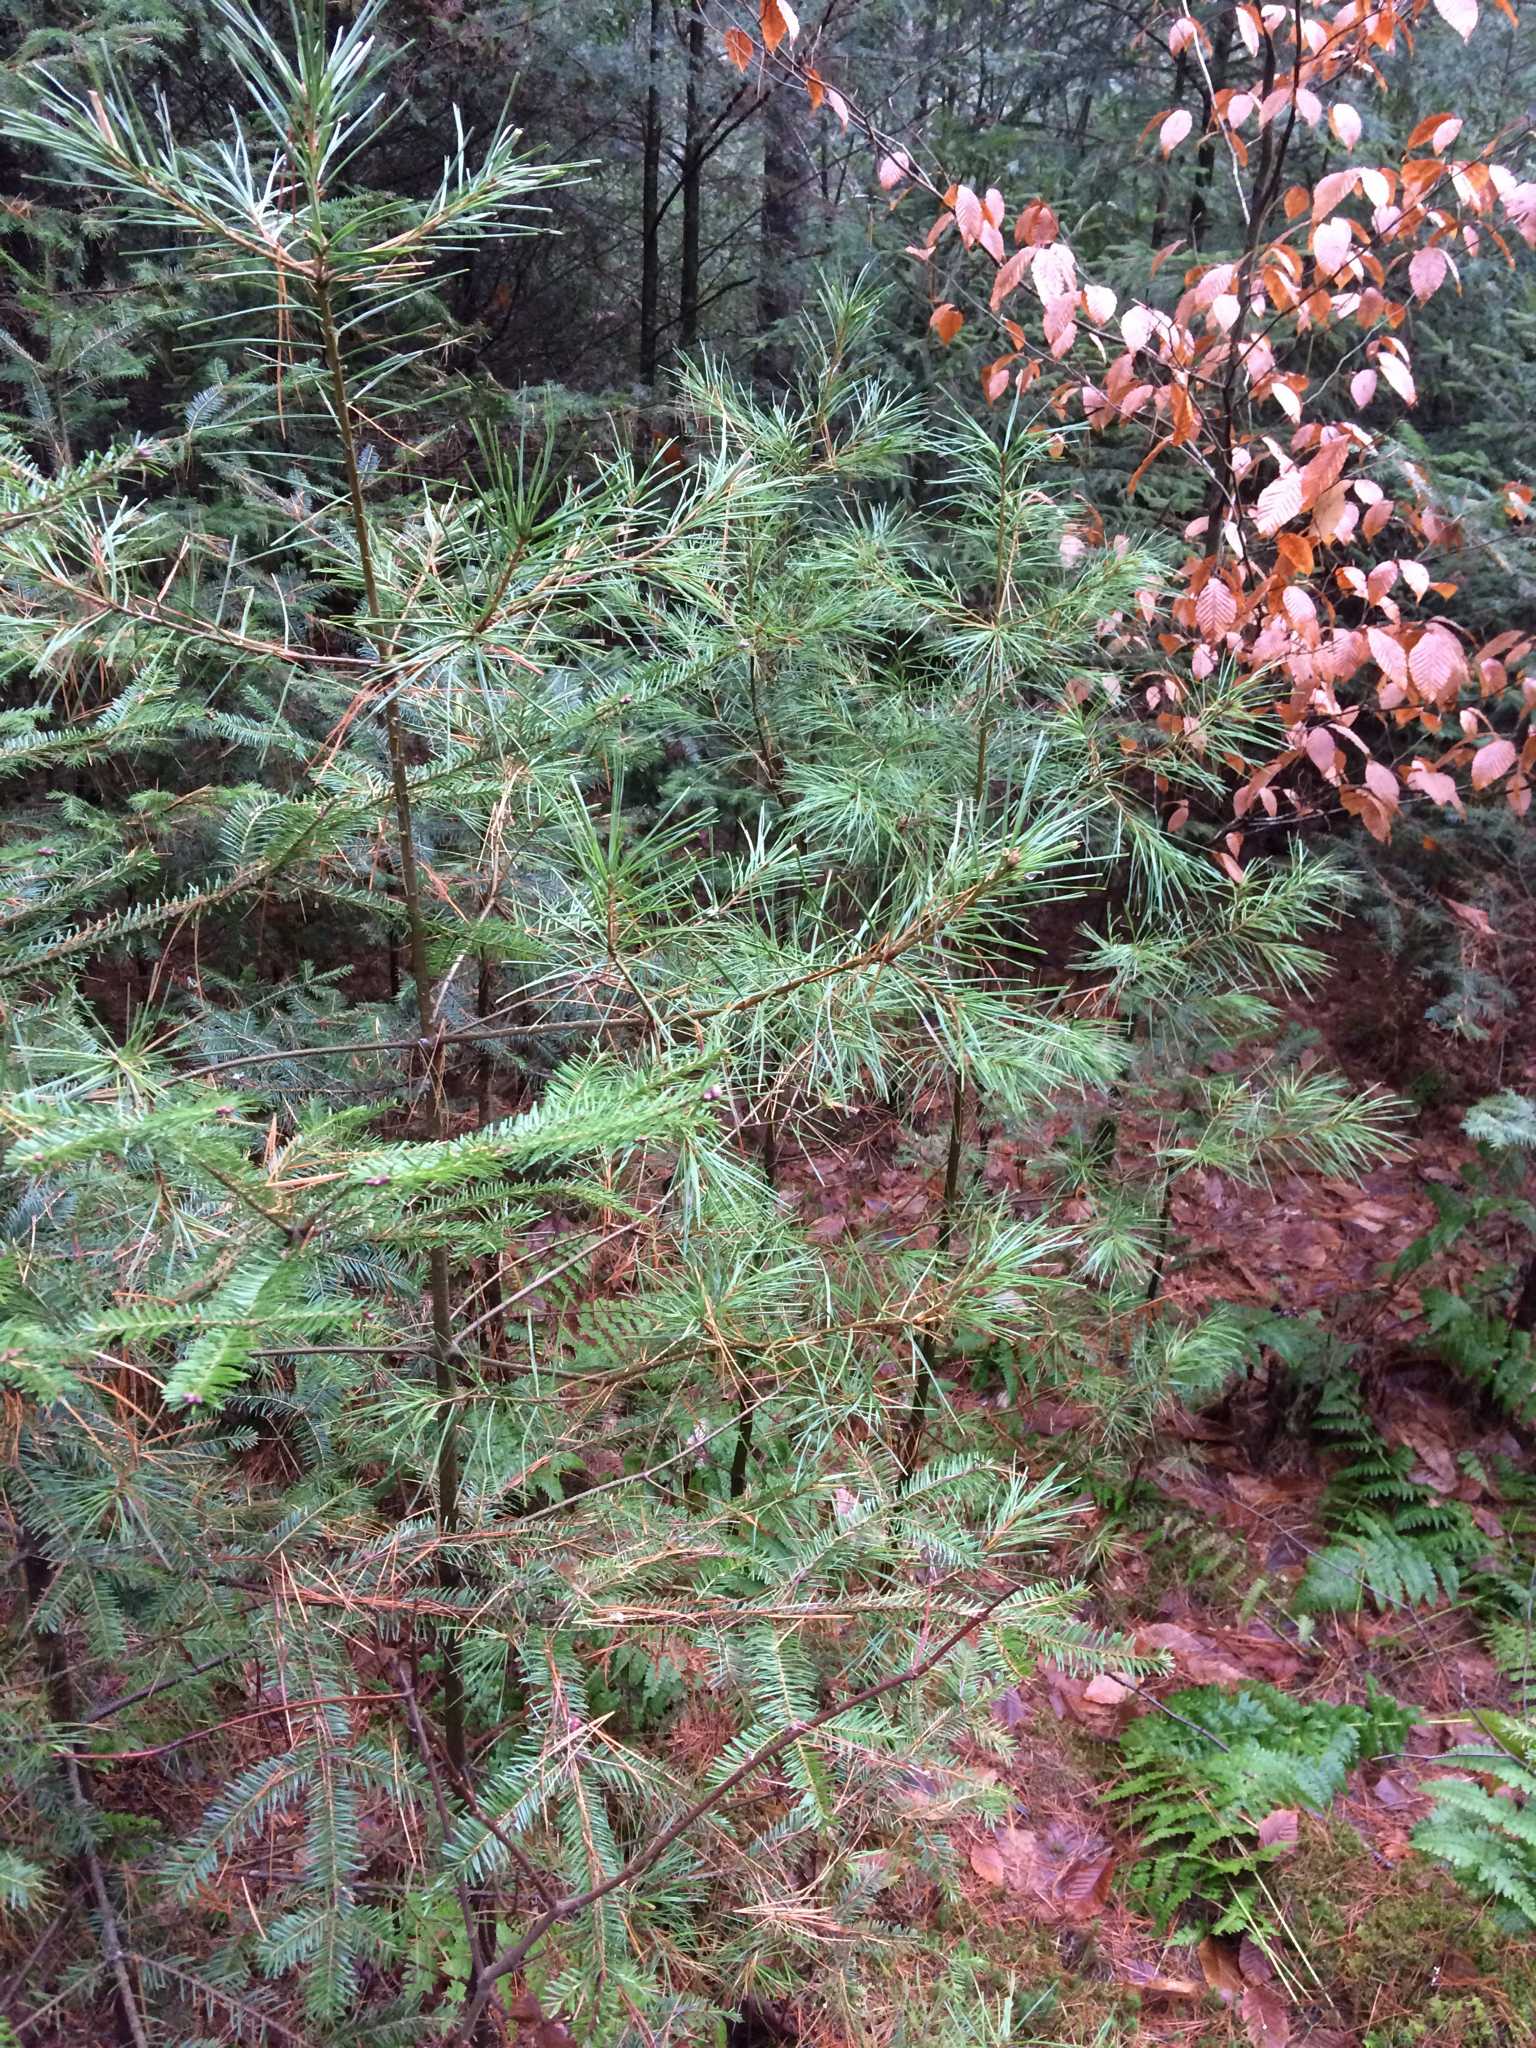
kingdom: Plantae
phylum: Tracheophyta
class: Pinopsida
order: Pinales
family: Pinaceae
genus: Pinus
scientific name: Pinus strobus
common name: Weymouth pine
